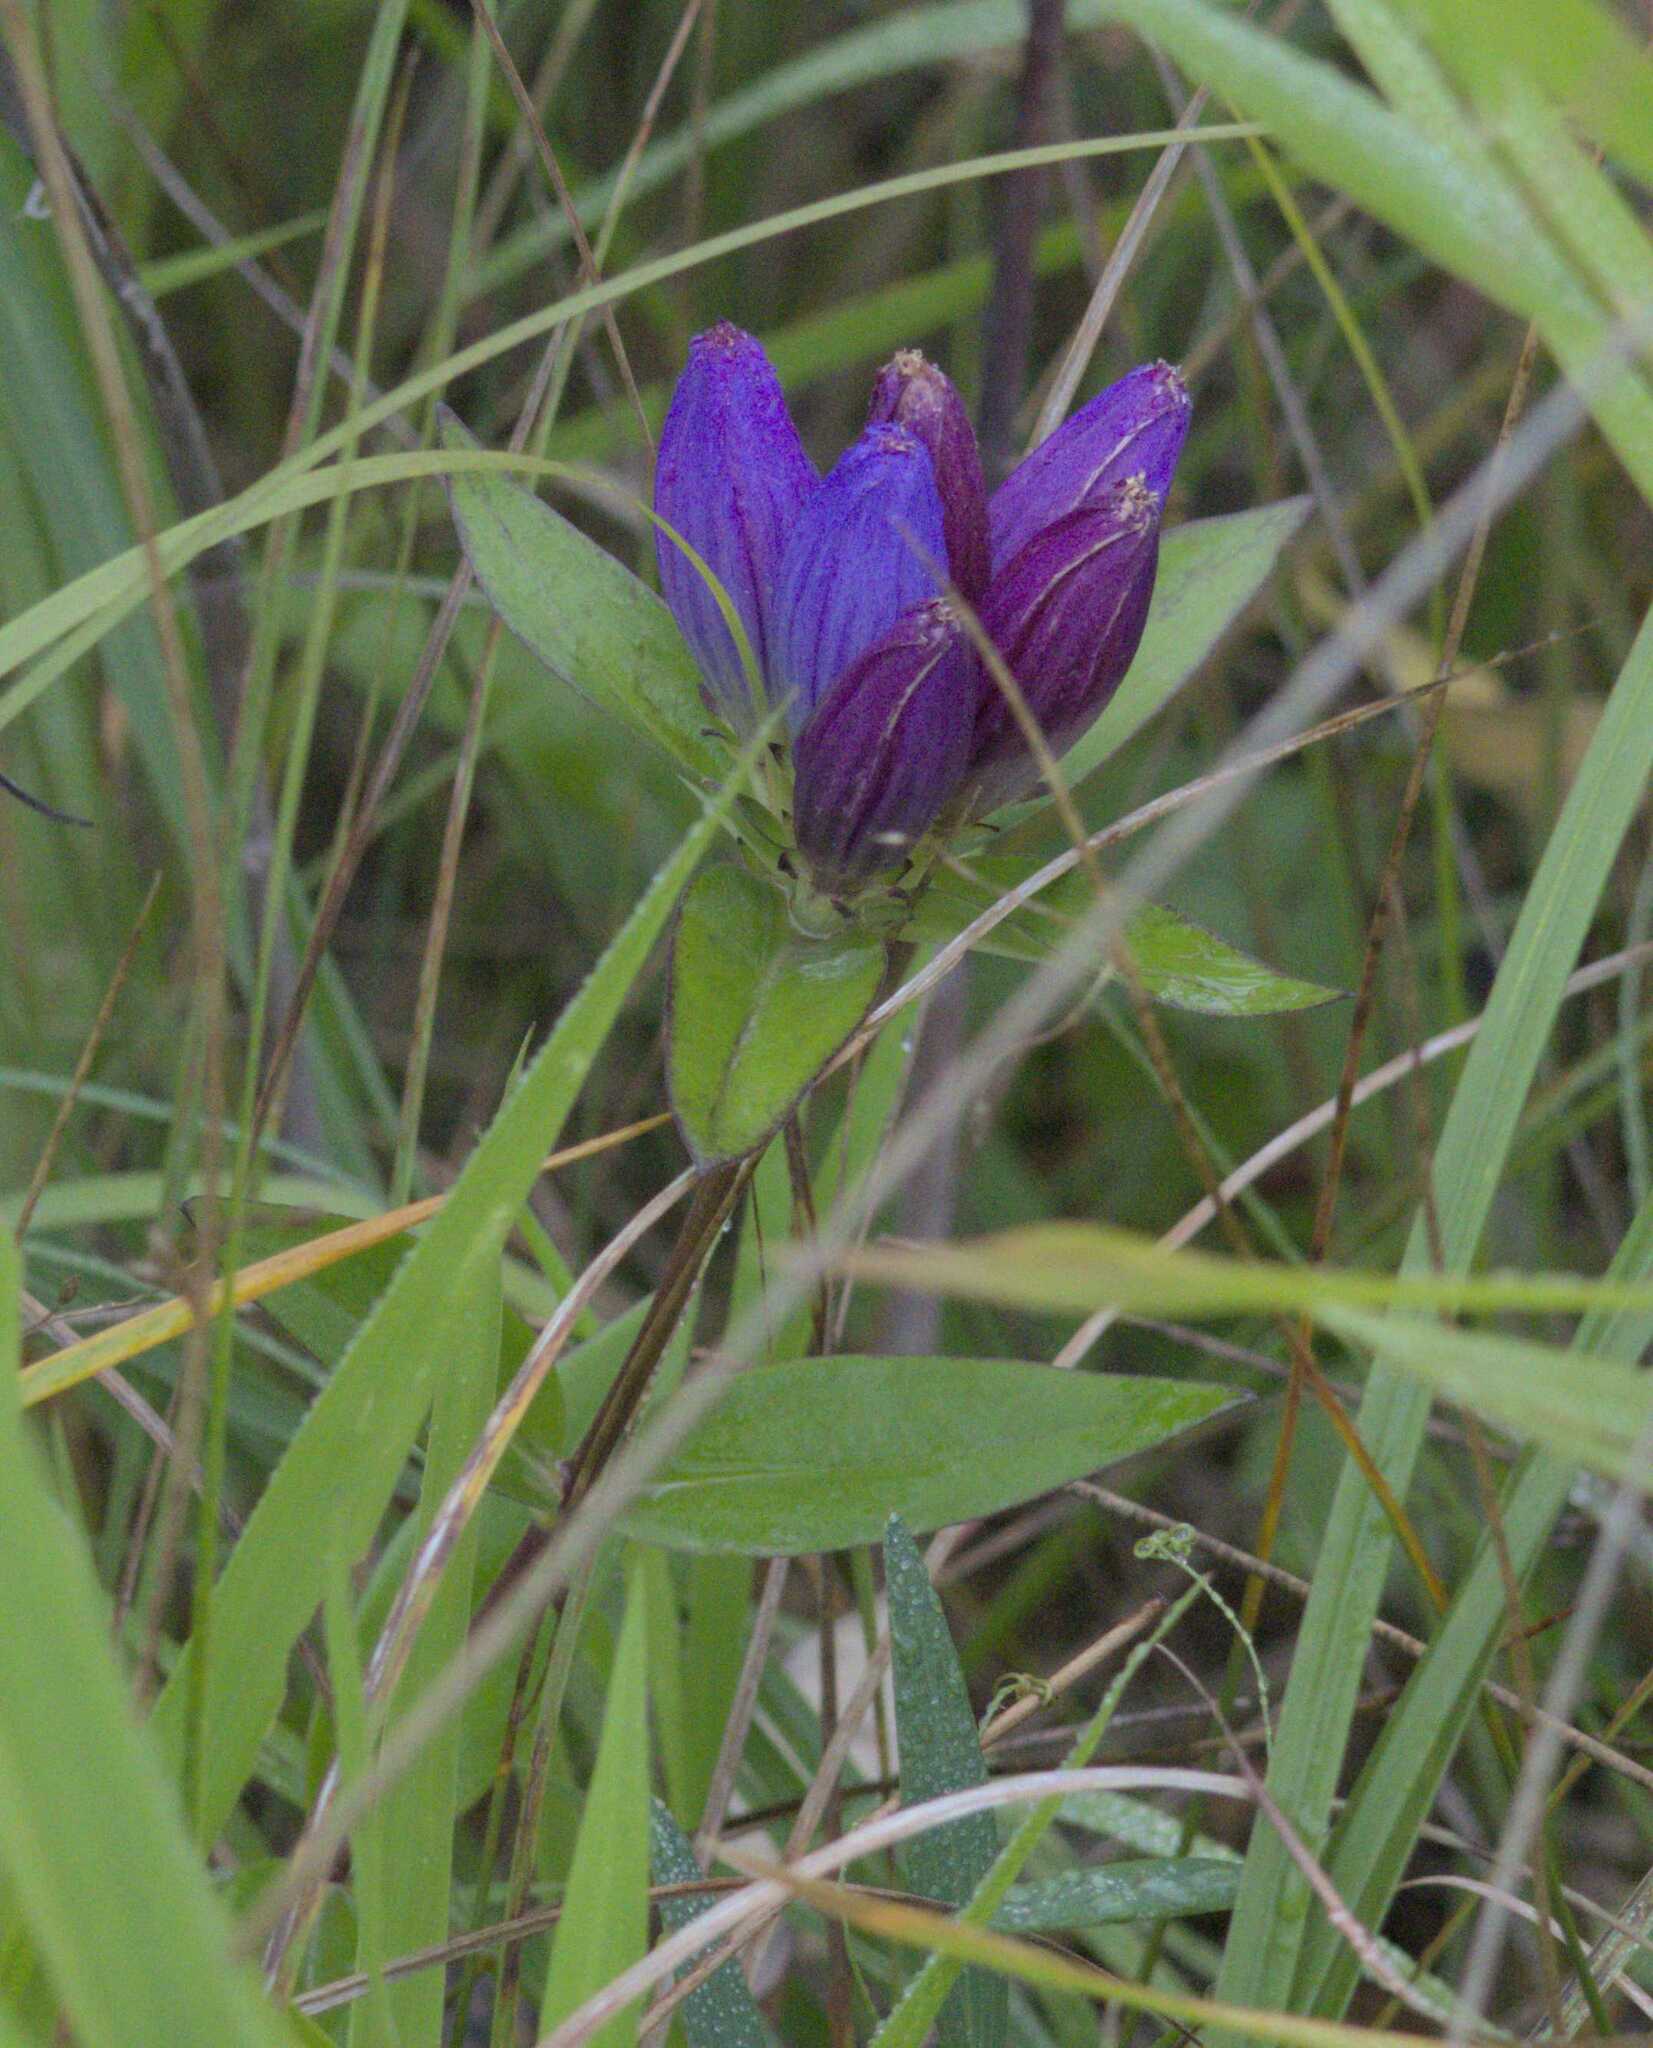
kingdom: Plantae
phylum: Tracheophyta
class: Magnoliopsida
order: Gentianales
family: Gentianaceae
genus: Gentiana
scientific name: Gentiana andrewsii
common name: Bottle gentian
